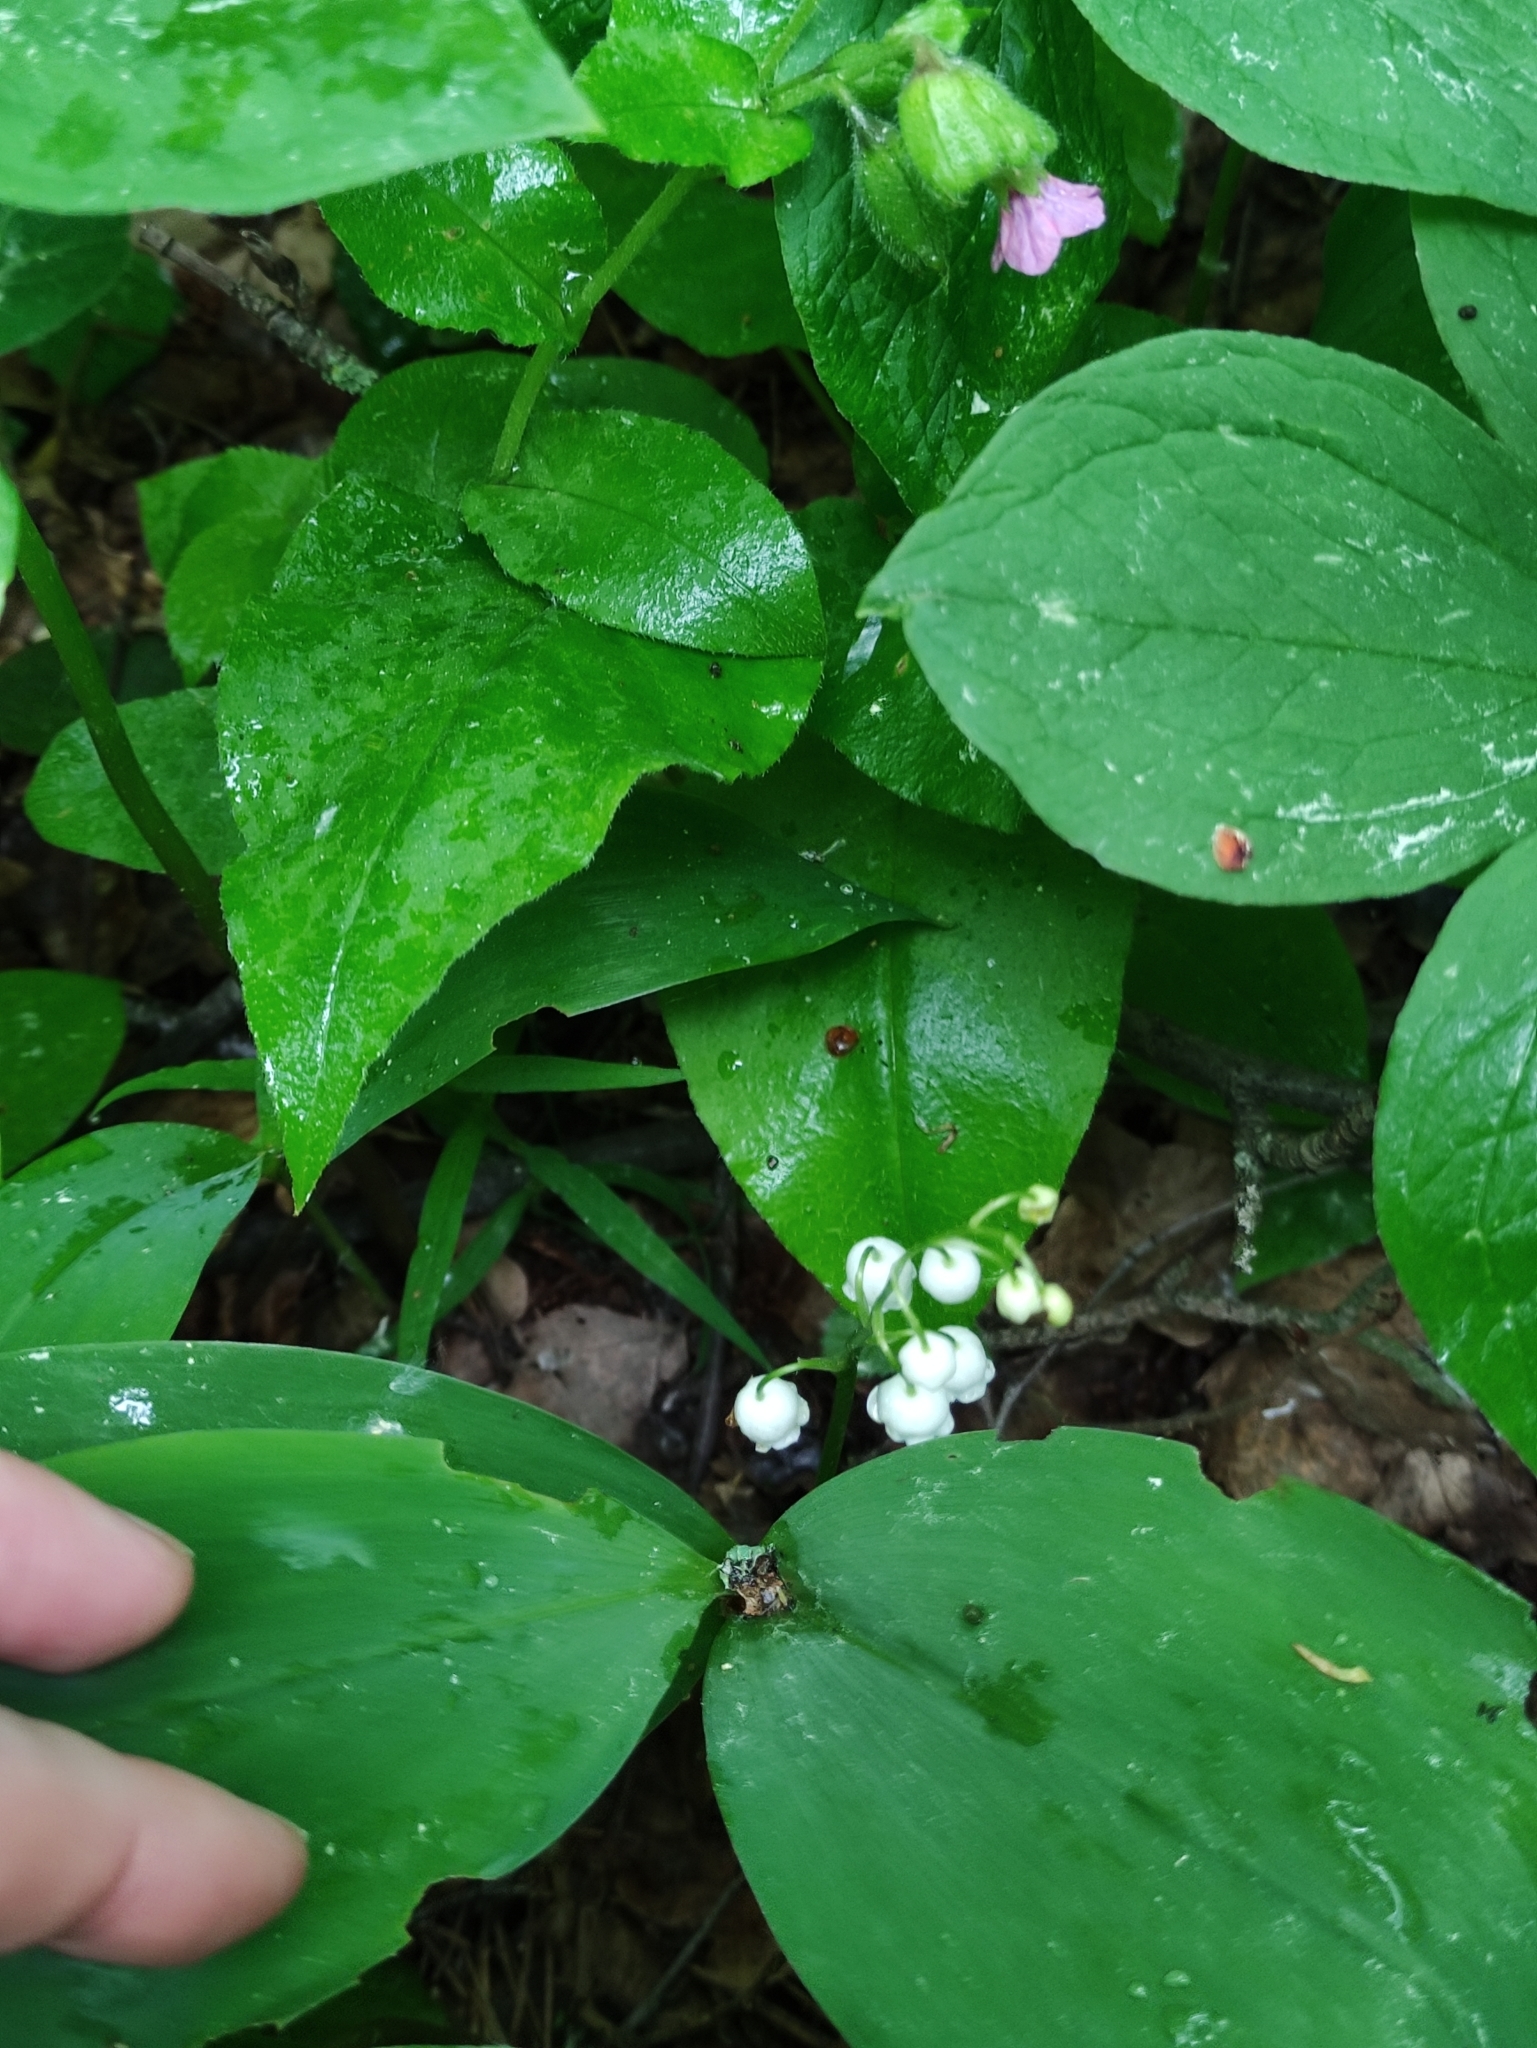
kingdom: Plantae
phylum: Tracheophyta
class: Liliopsida
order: Asparagales
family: Asparagaceae
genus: Convallaria
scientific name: Convallaria majalis
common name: Lily-of-the-valley
